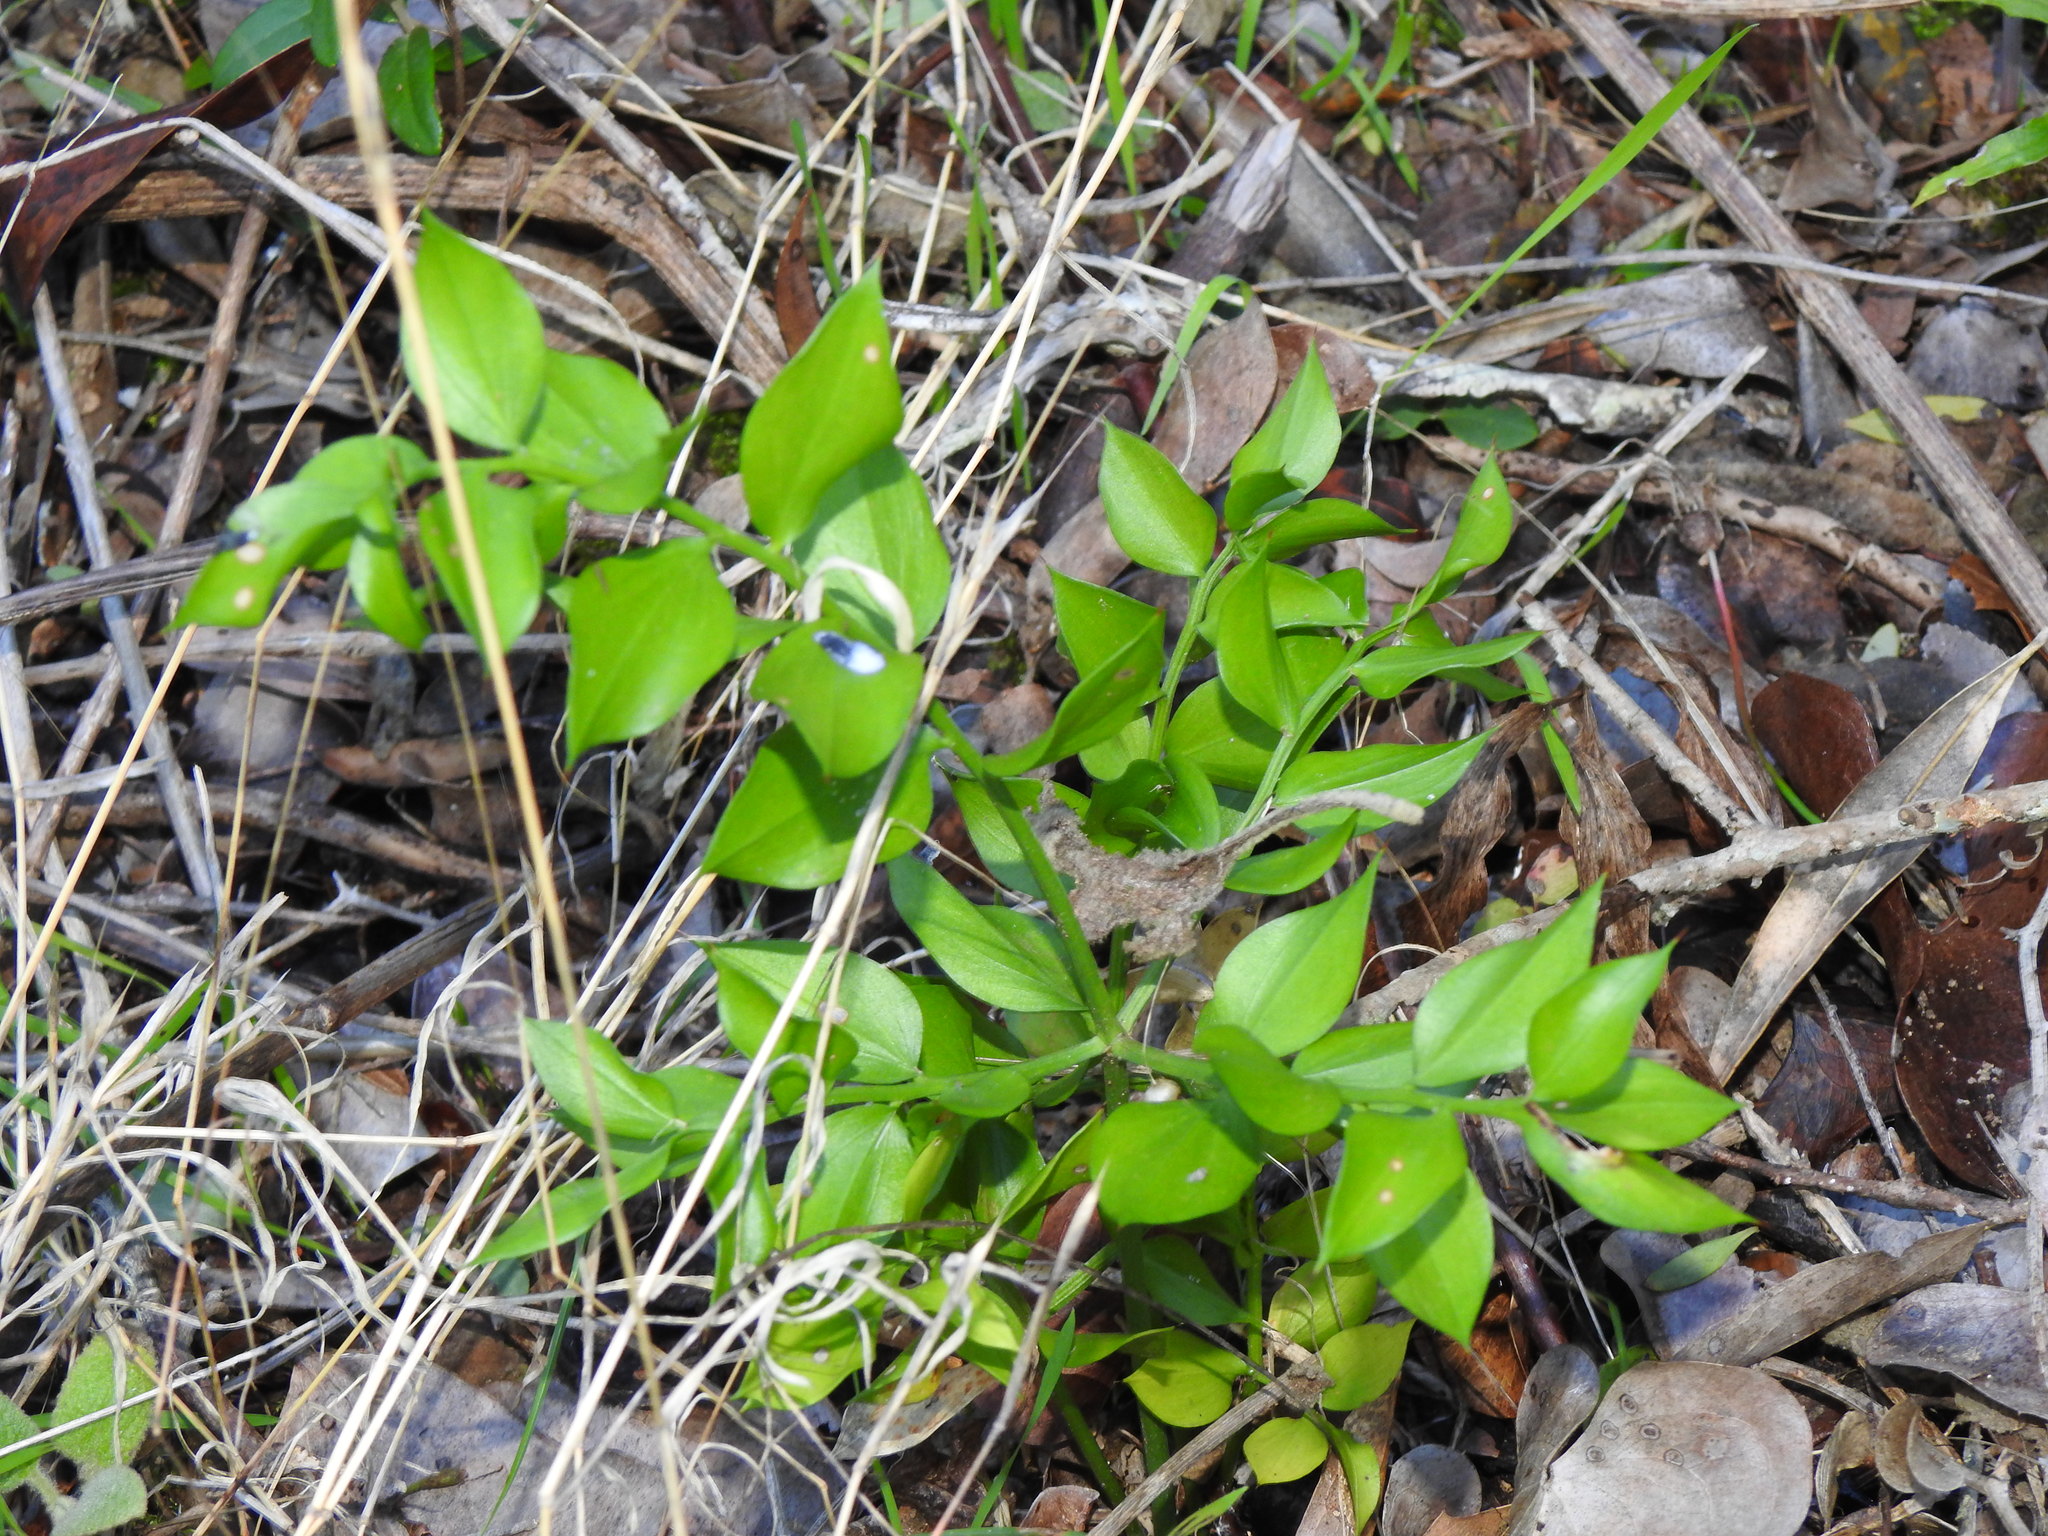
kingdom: Plantae
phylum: Tracheophyta
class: Liliopsida
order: Asparagales
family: Asparagaceae
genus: Ruscus
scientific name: Ruscus aculeatus
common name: Butcher's-broom
